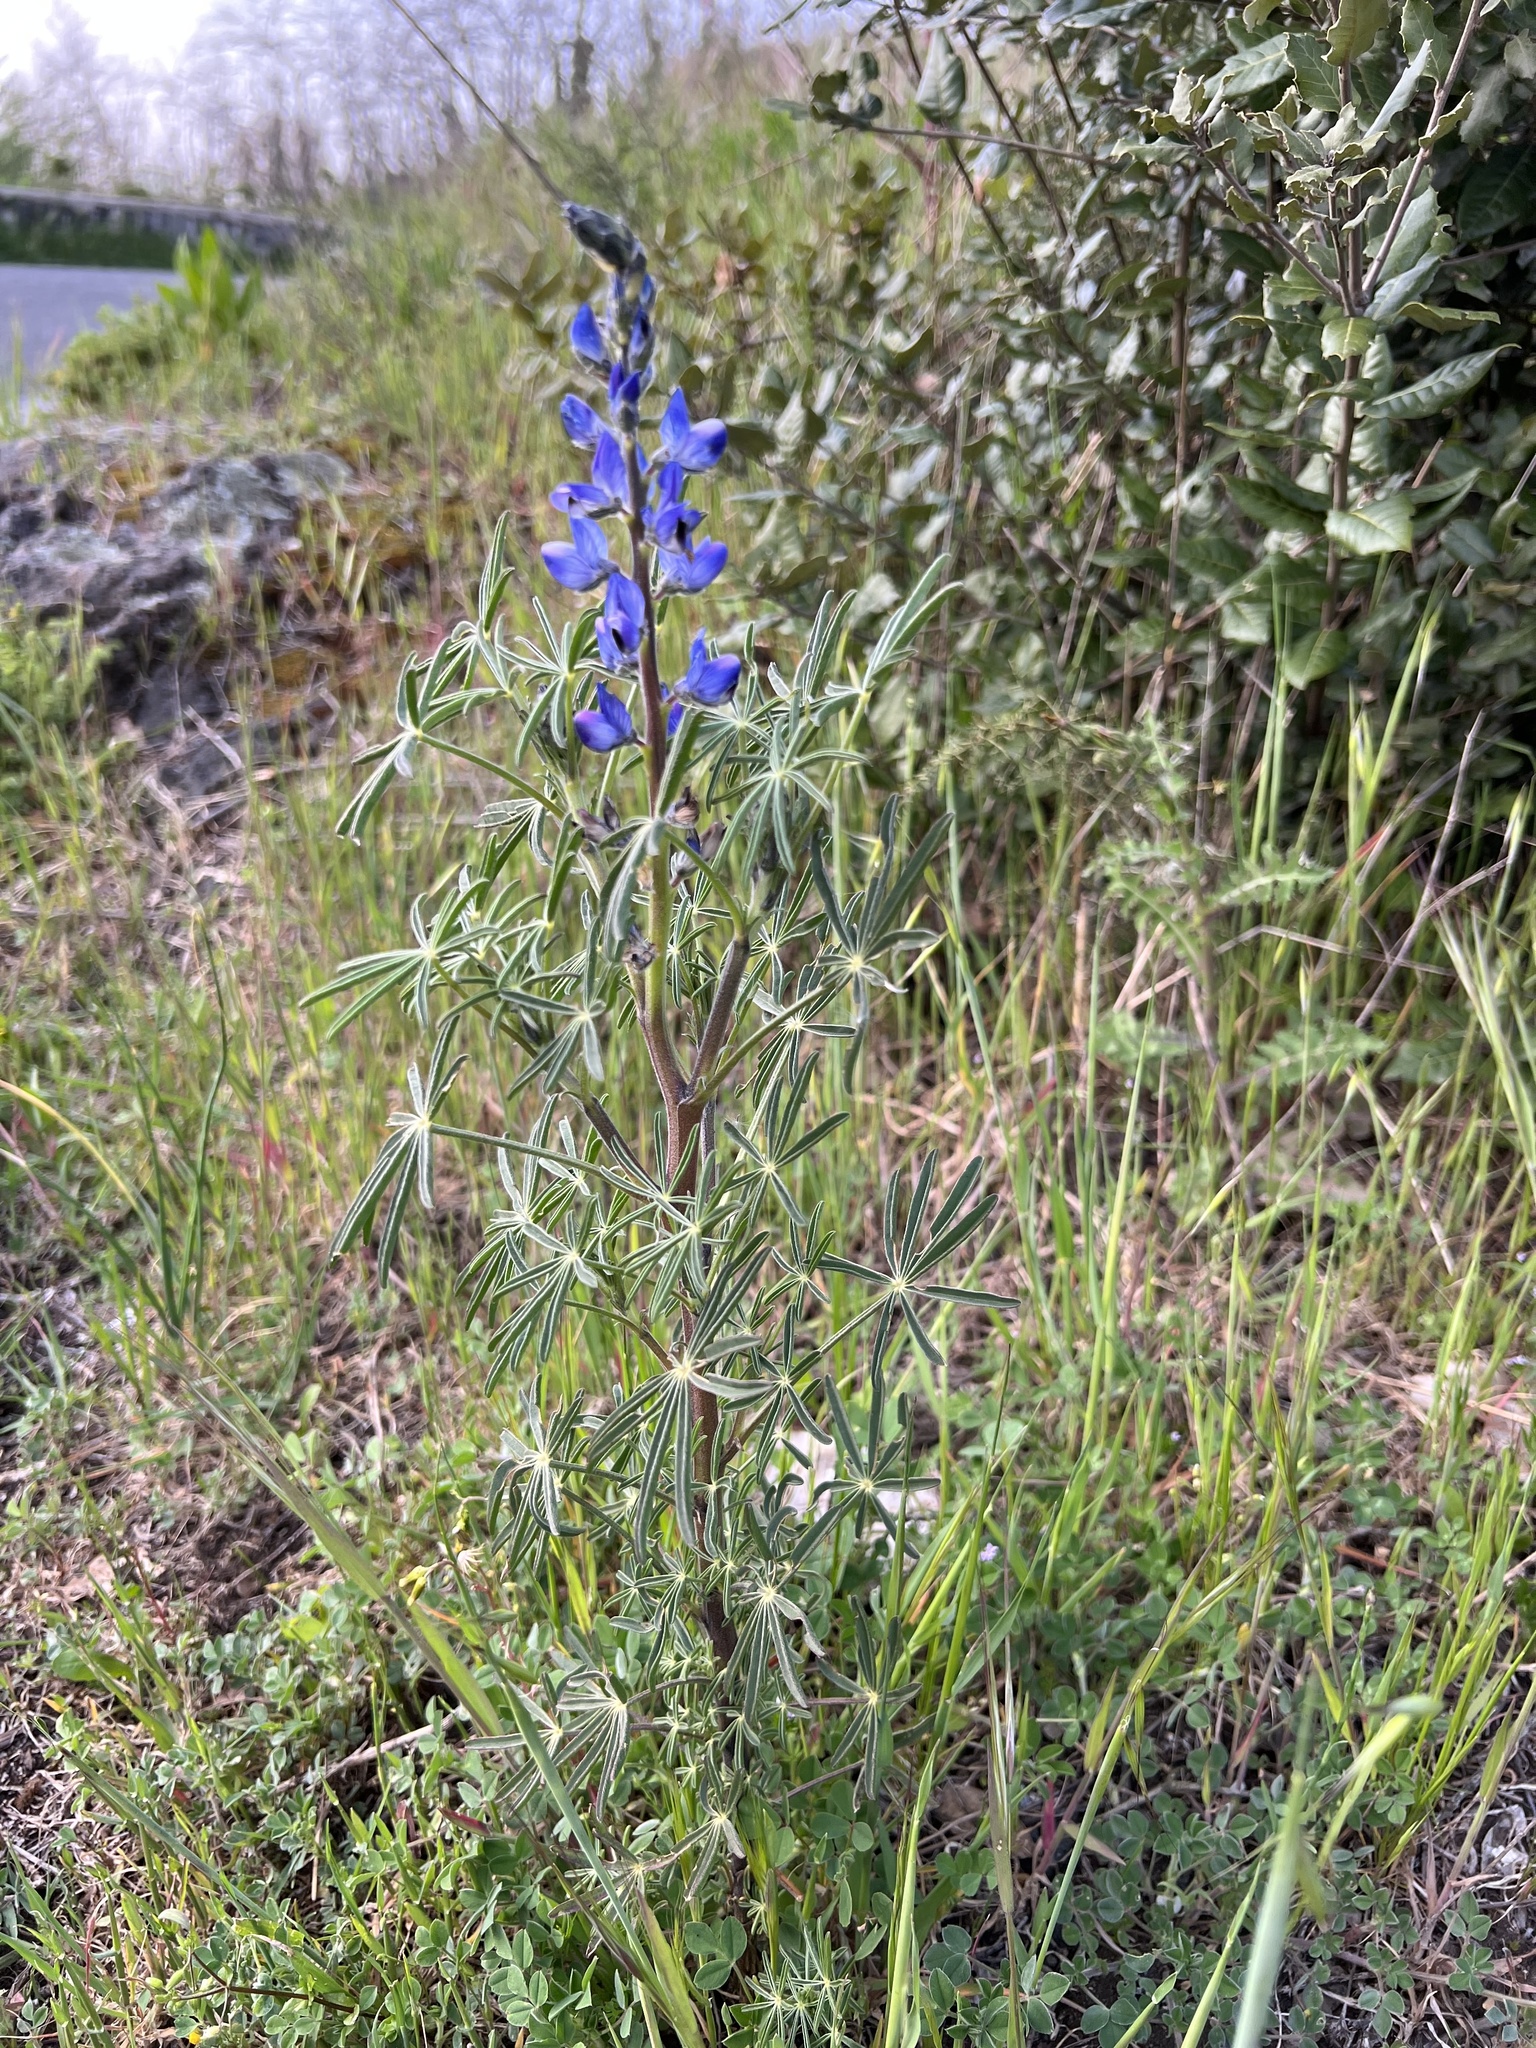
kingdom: Plantae
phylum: Tracheophyta
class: Magnoliopsida
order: Fabales
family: Fabaceae
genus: Lupinus
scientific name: Lupinus angustifolius
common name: Narrow-leaved lupin
